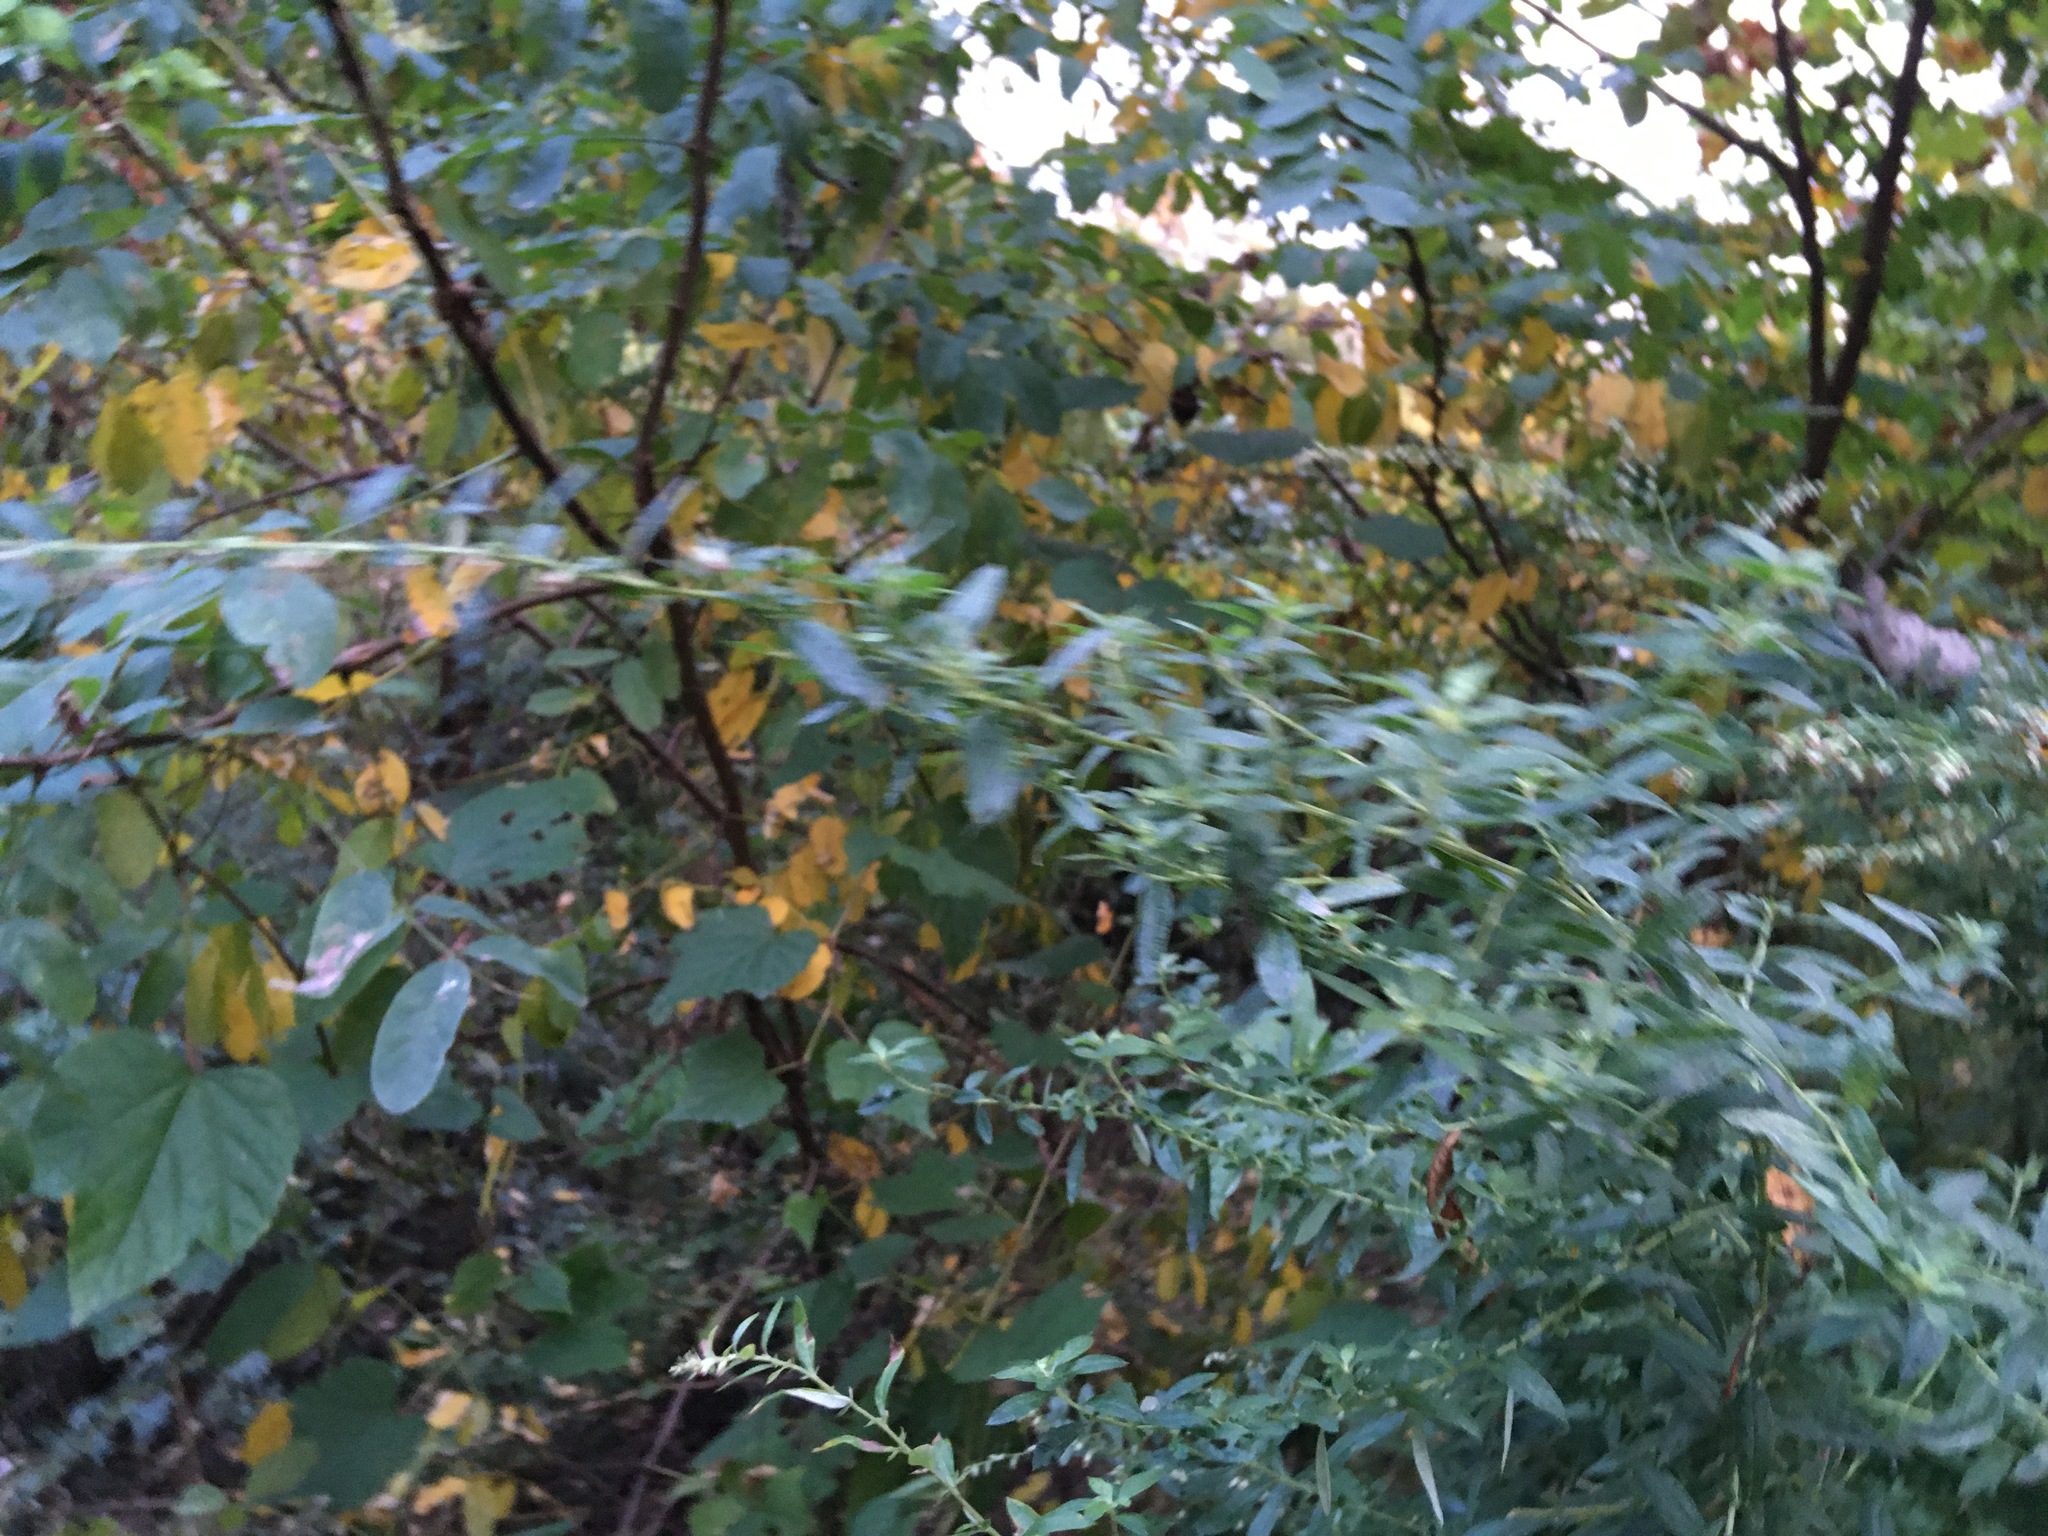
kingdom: Plantae
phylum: Tracheophyta
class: Magnoliopsida
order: Asterales
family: Asteraceae
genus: Artemisia
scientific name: Artemisia vulgaris
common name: Mugwort
